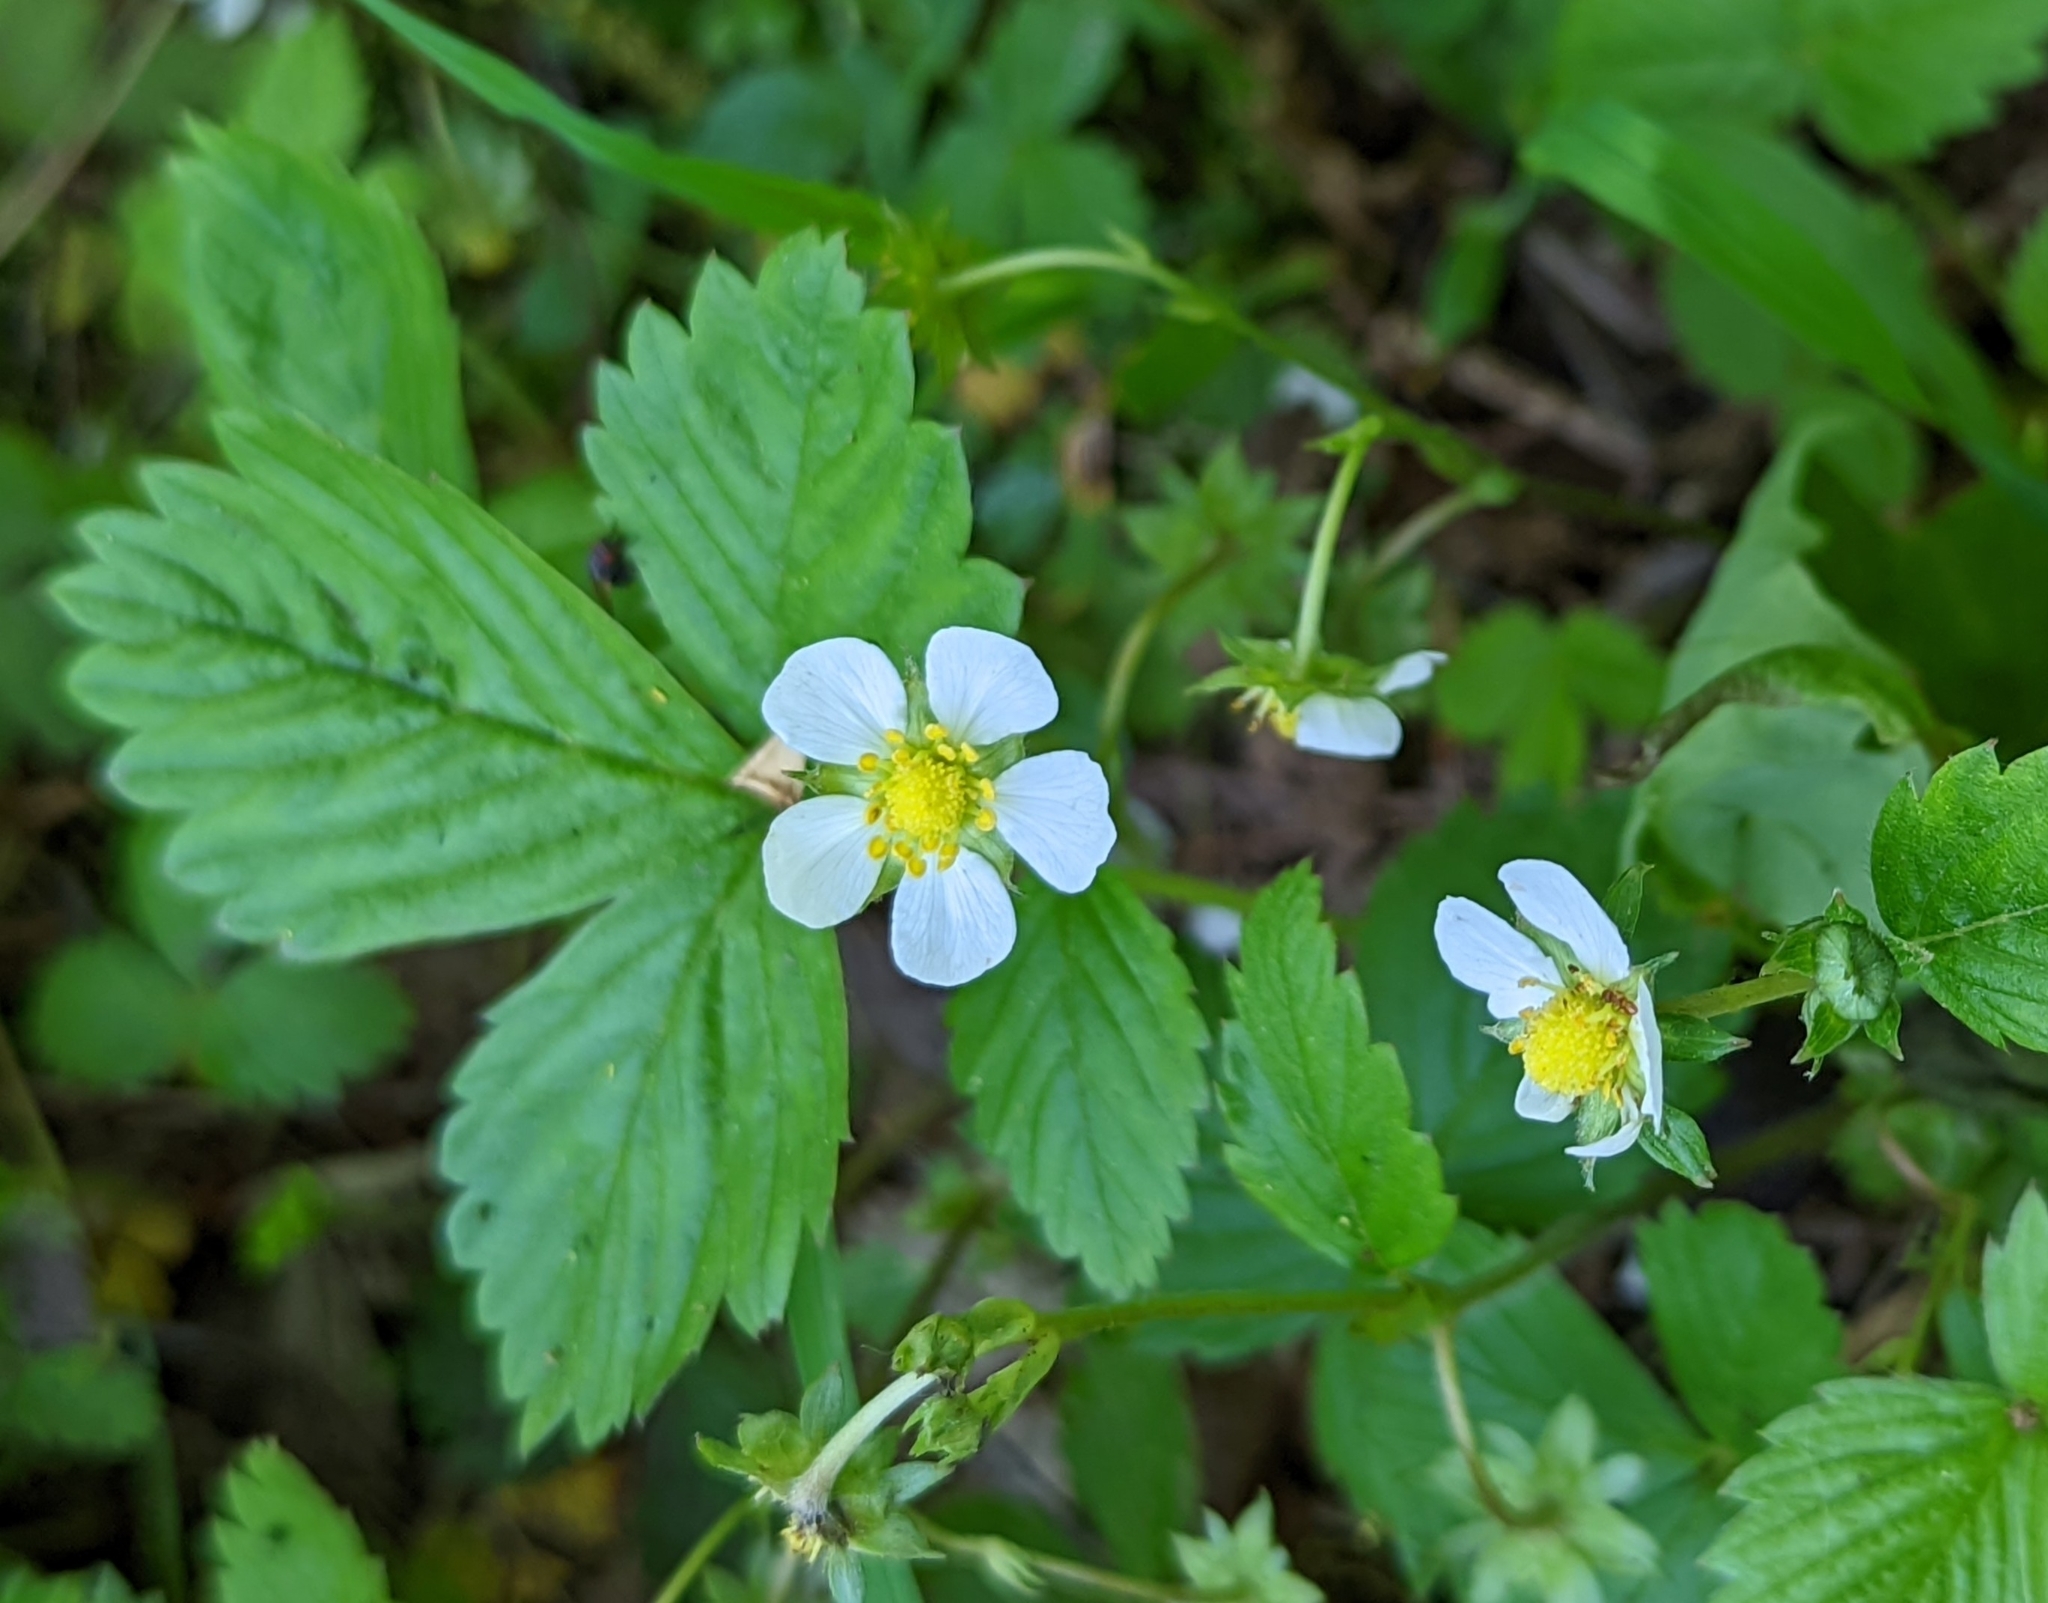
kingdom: Plantae
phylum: Tracheophyta
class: Magnoliopsida
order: Rosales
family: Rosaceae
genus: Fragaria
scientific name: Fragaria vesca
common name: Wild strawberry
